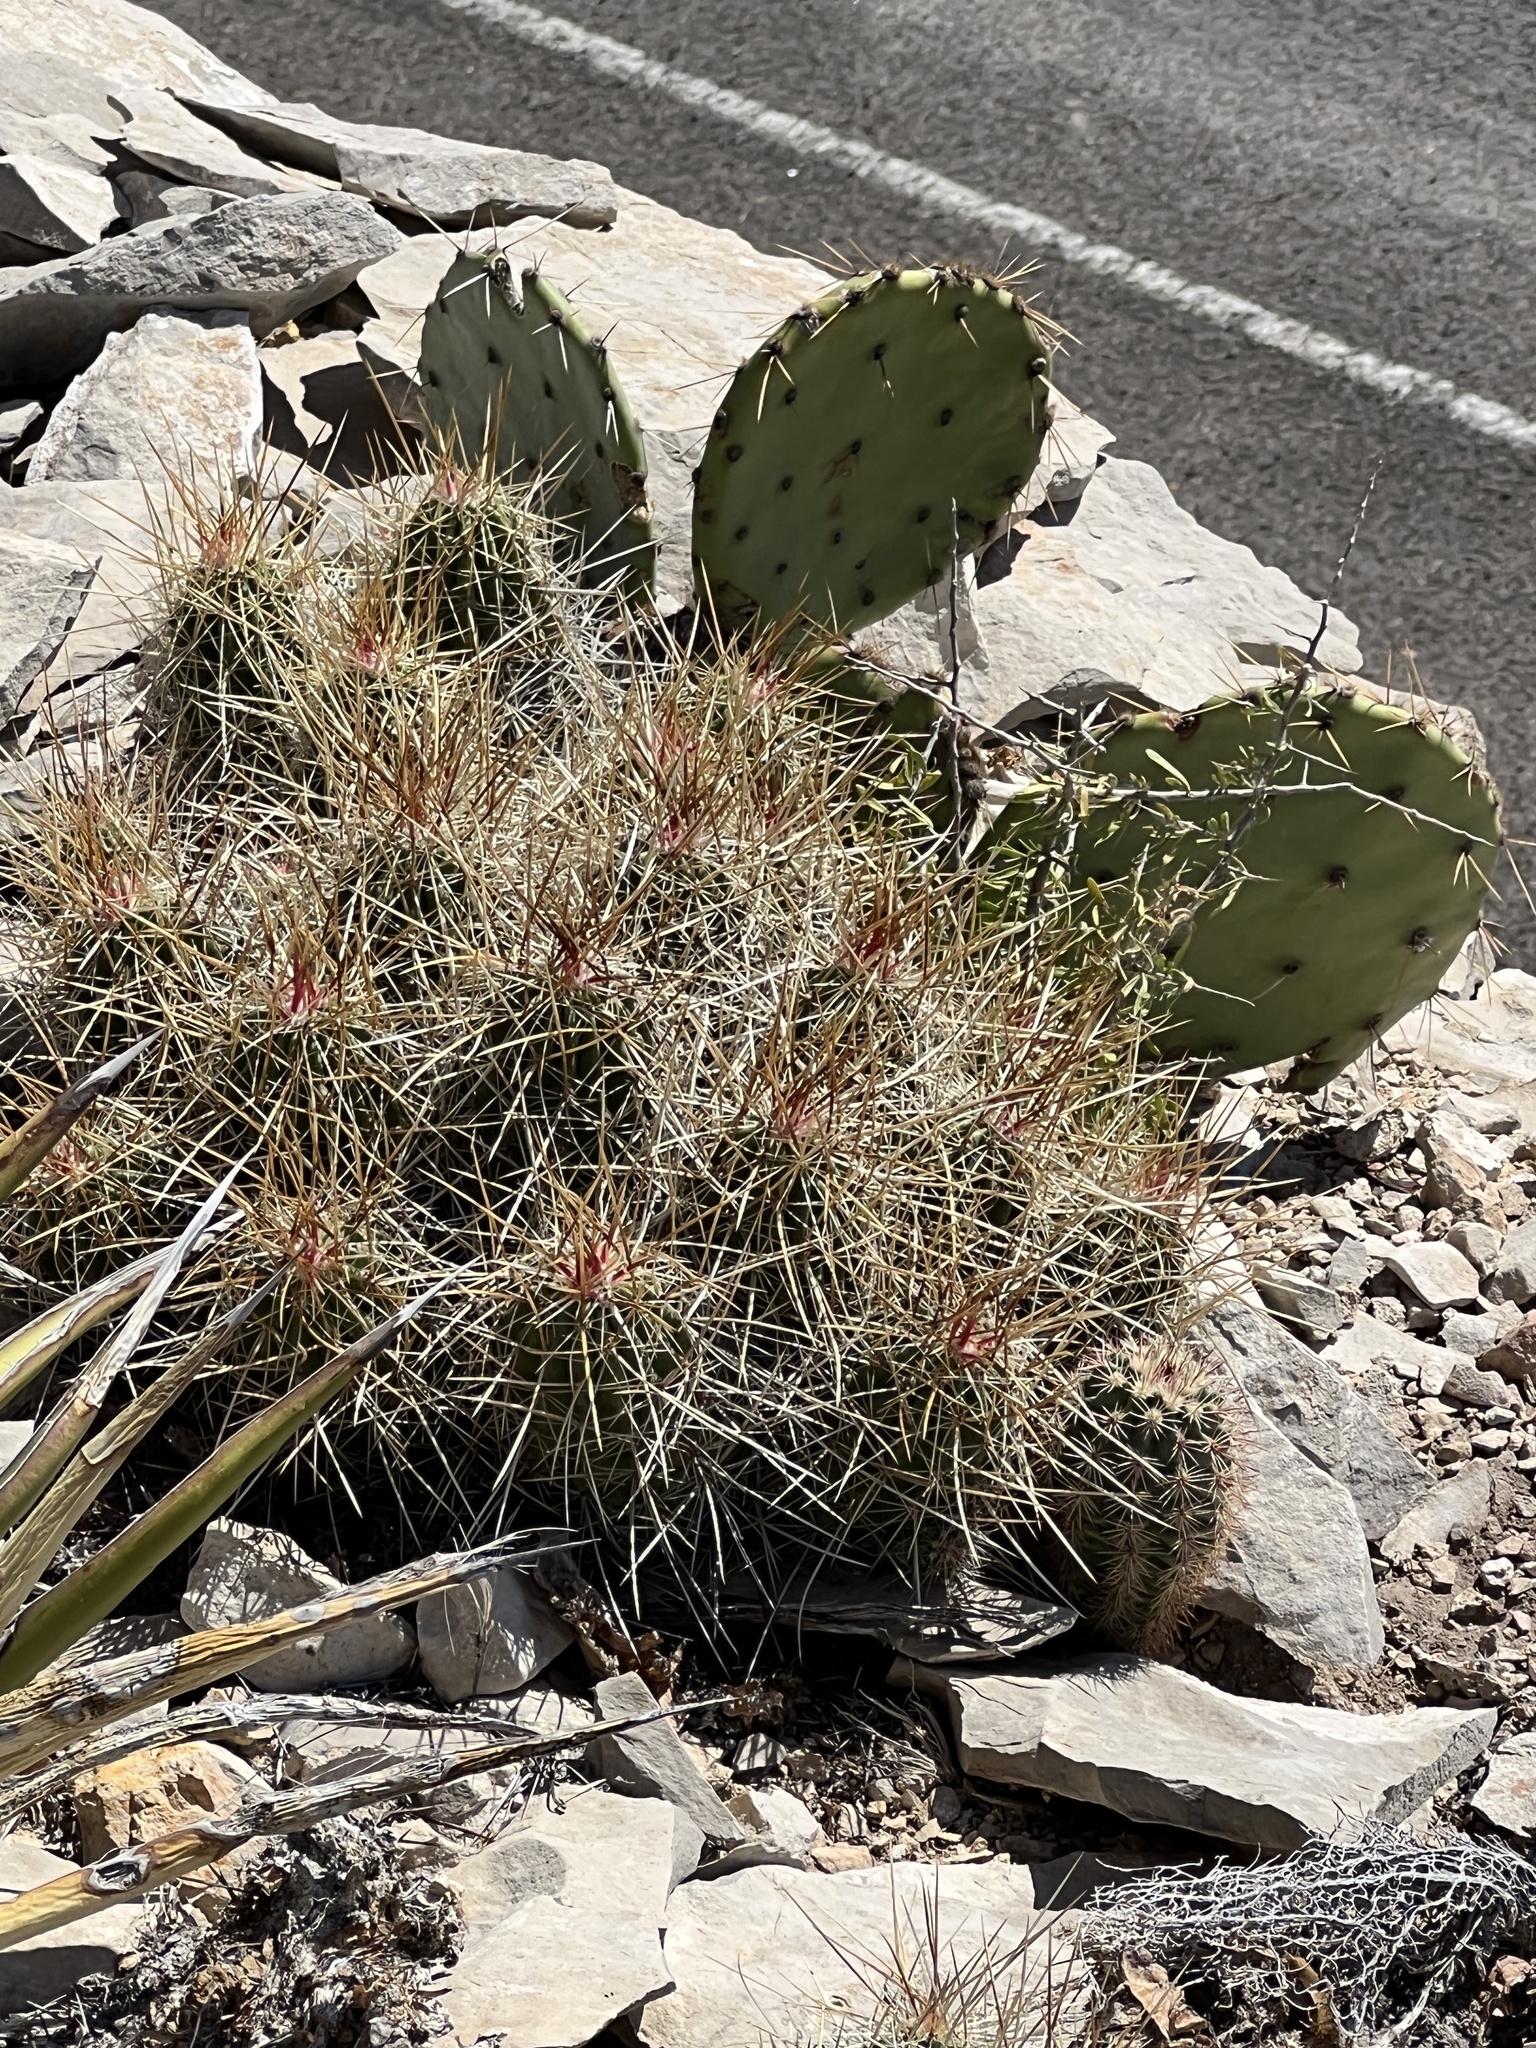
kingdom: Plantae
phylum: Tracheophyta
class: Magnoliopsida
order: Caryophyllales
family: Cactaceae
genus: Echinocereus
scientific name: Echinocereus stramineus
